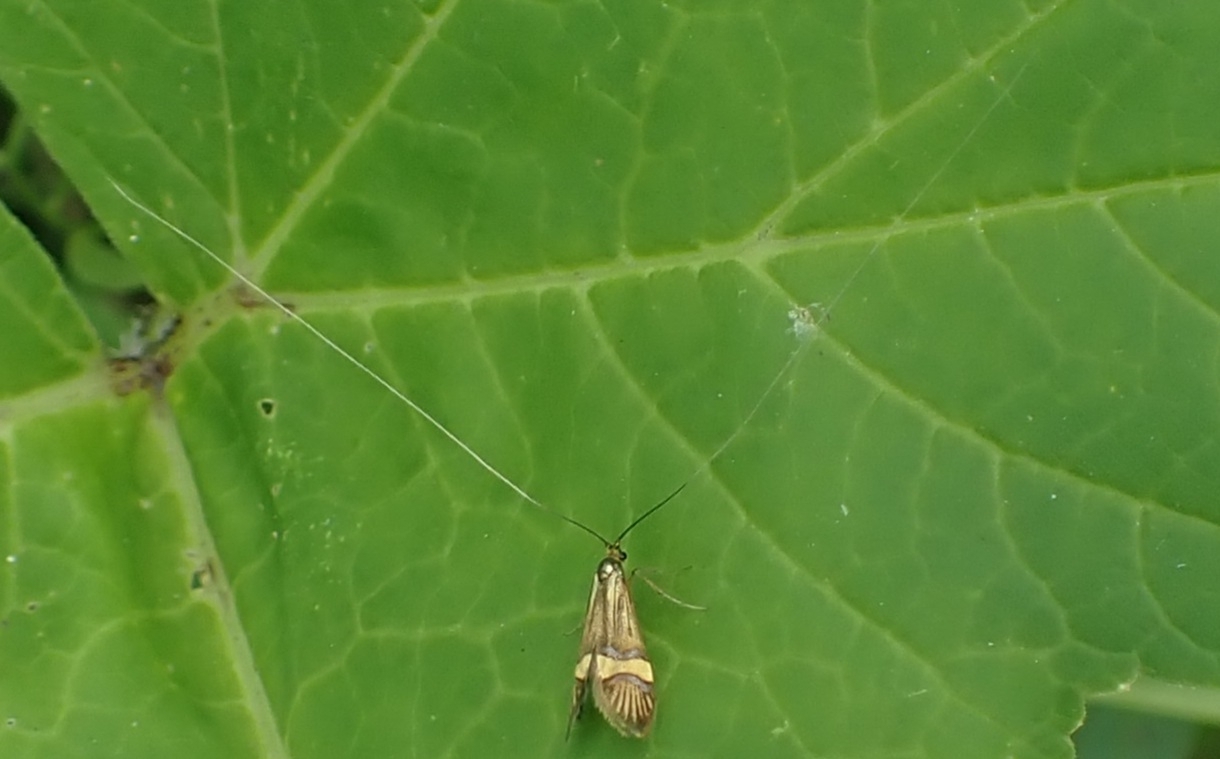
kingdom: Animalia
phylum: Arthropoda
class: Insecta
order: Lepidoptera
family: Adelidae
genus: Nemophora
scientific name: Nemophora degeerella
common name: Yellow-barred long-horn
